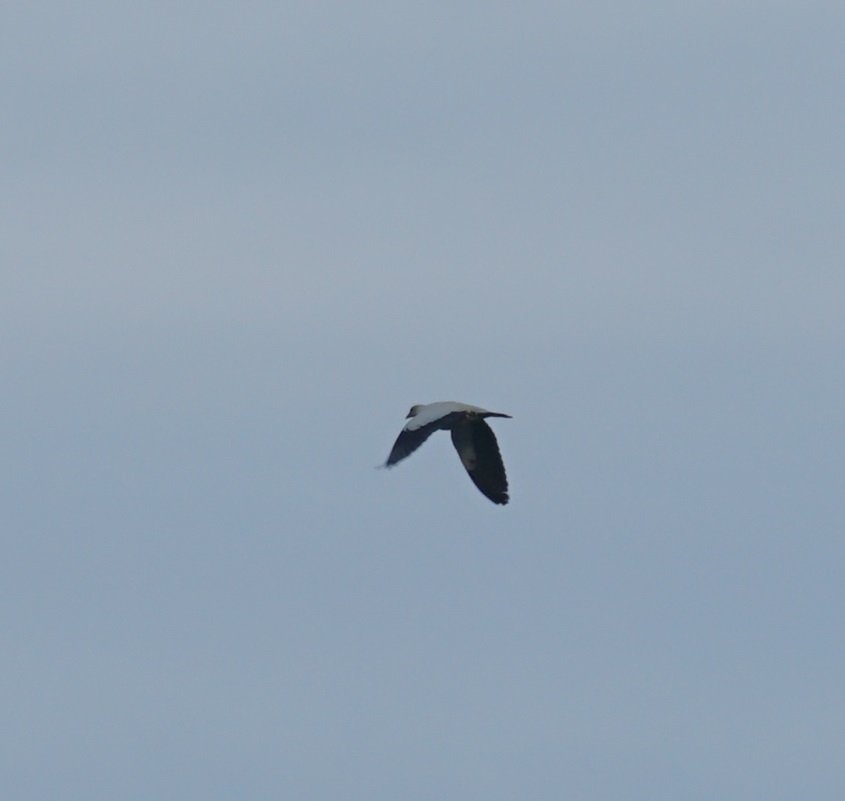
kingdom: Animalia
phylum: Chordata
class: Aves
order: Columbiformes
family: Columbidae
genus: Ducula
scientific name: Ducula spilorrhoa
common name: Torresian imperial pigeon
